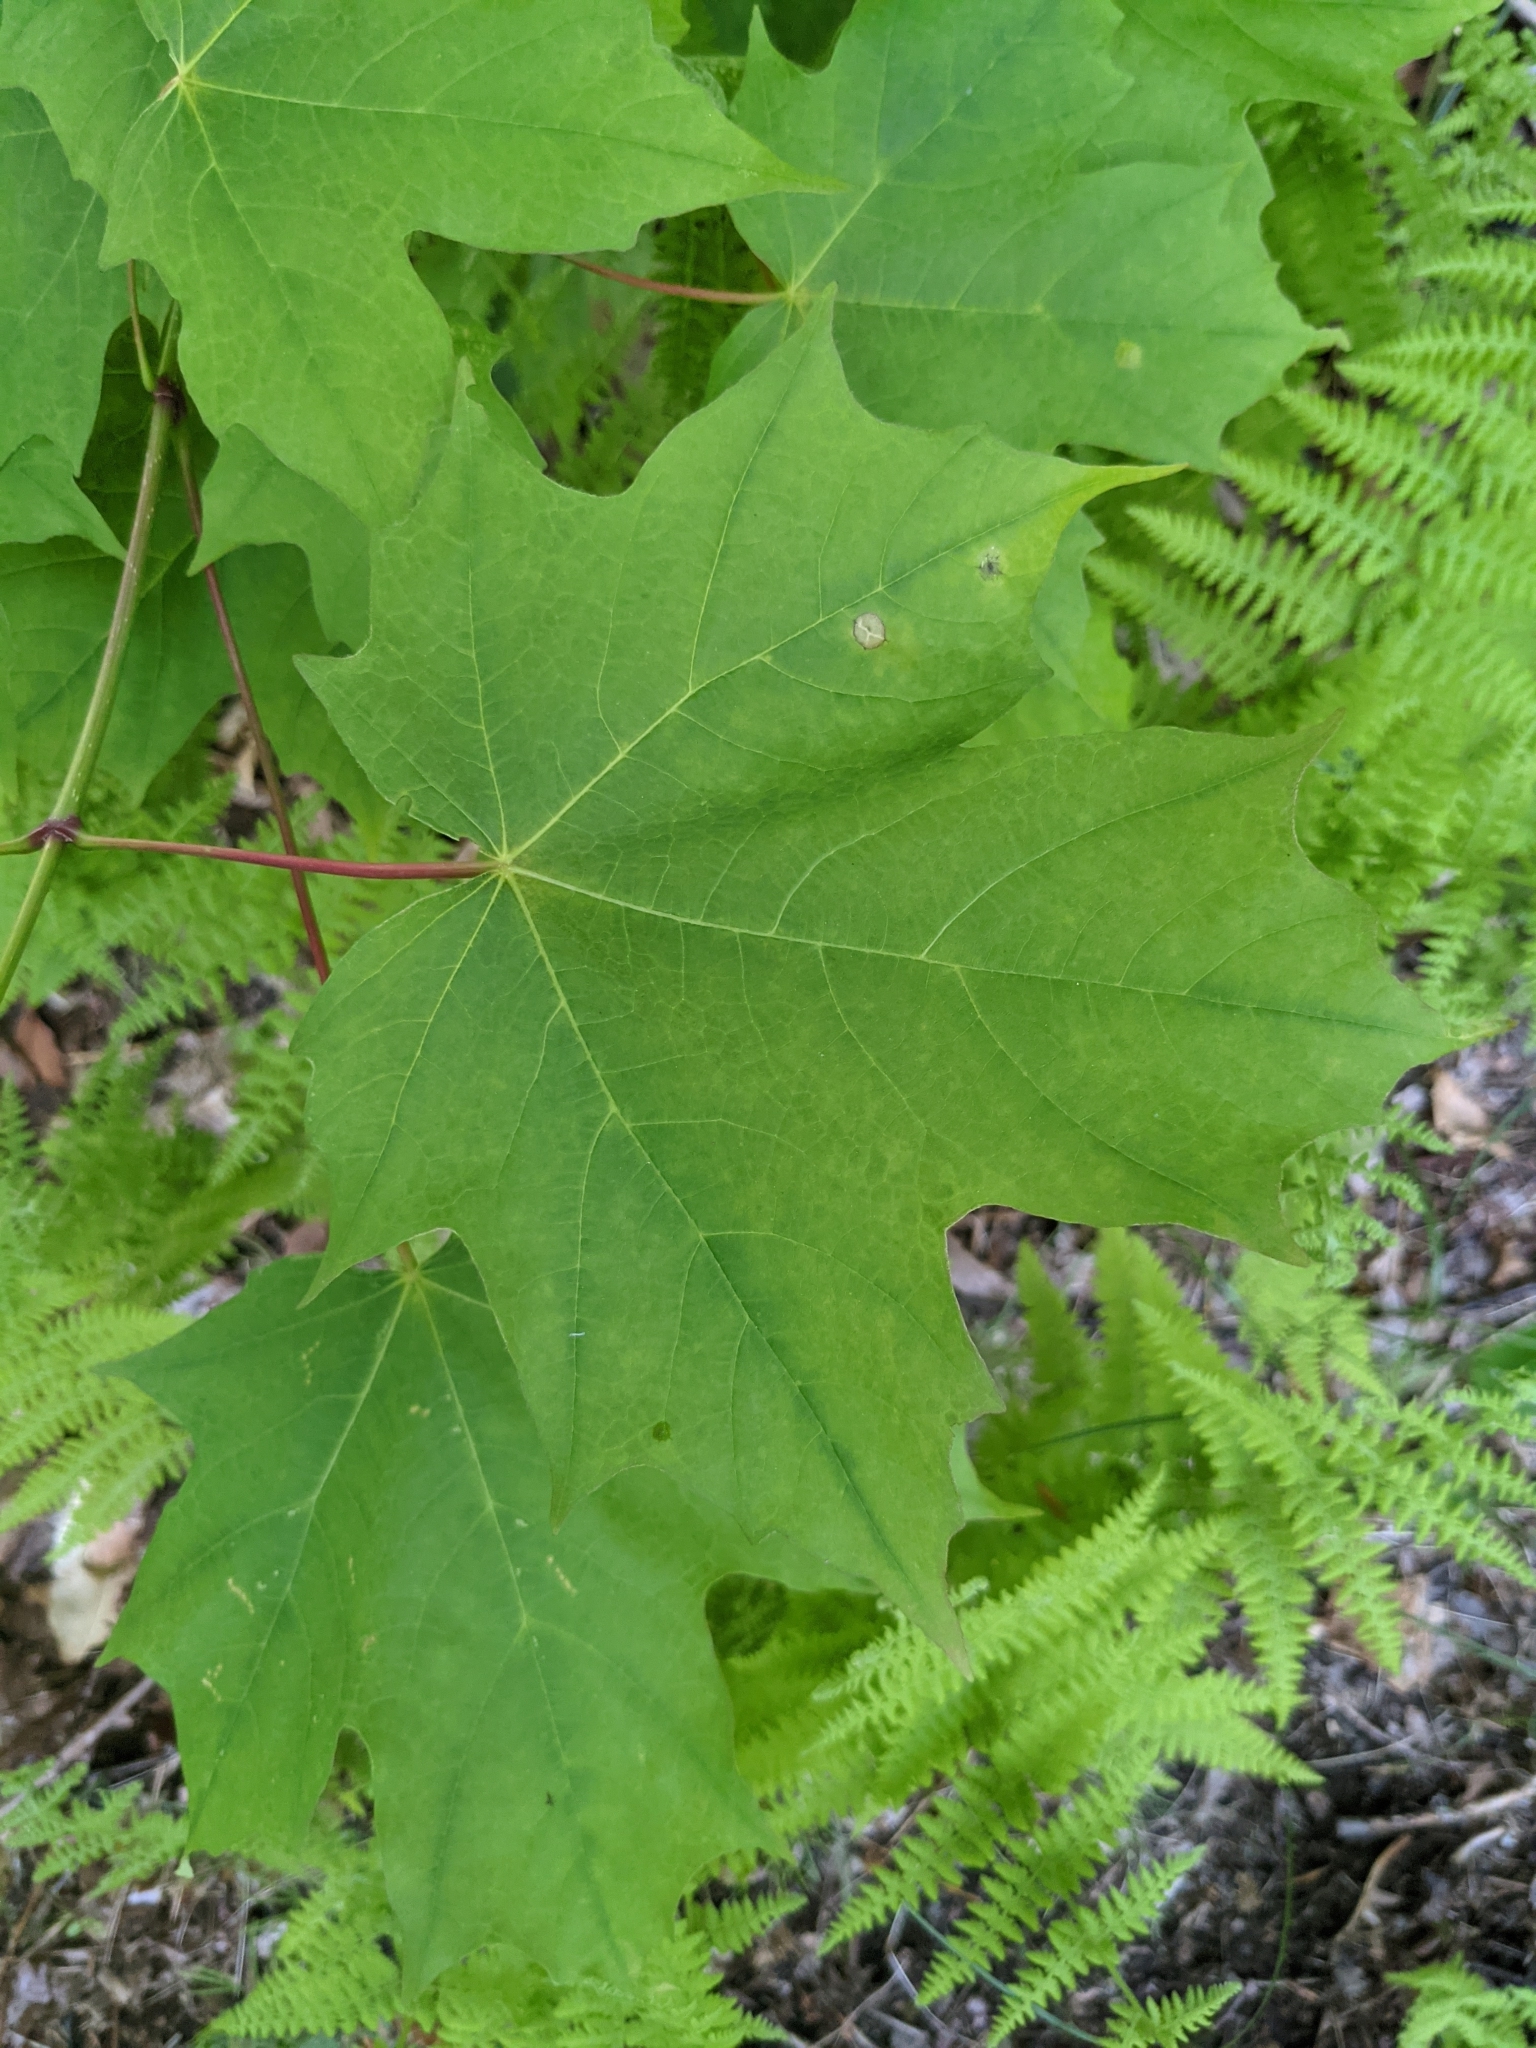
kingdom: Plantae
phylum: Tracheophyta
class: Magnoliopsida
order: Sapindales
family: Sapindaceae
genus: Acer
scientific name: Acer saccharum
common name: Sugar maple
